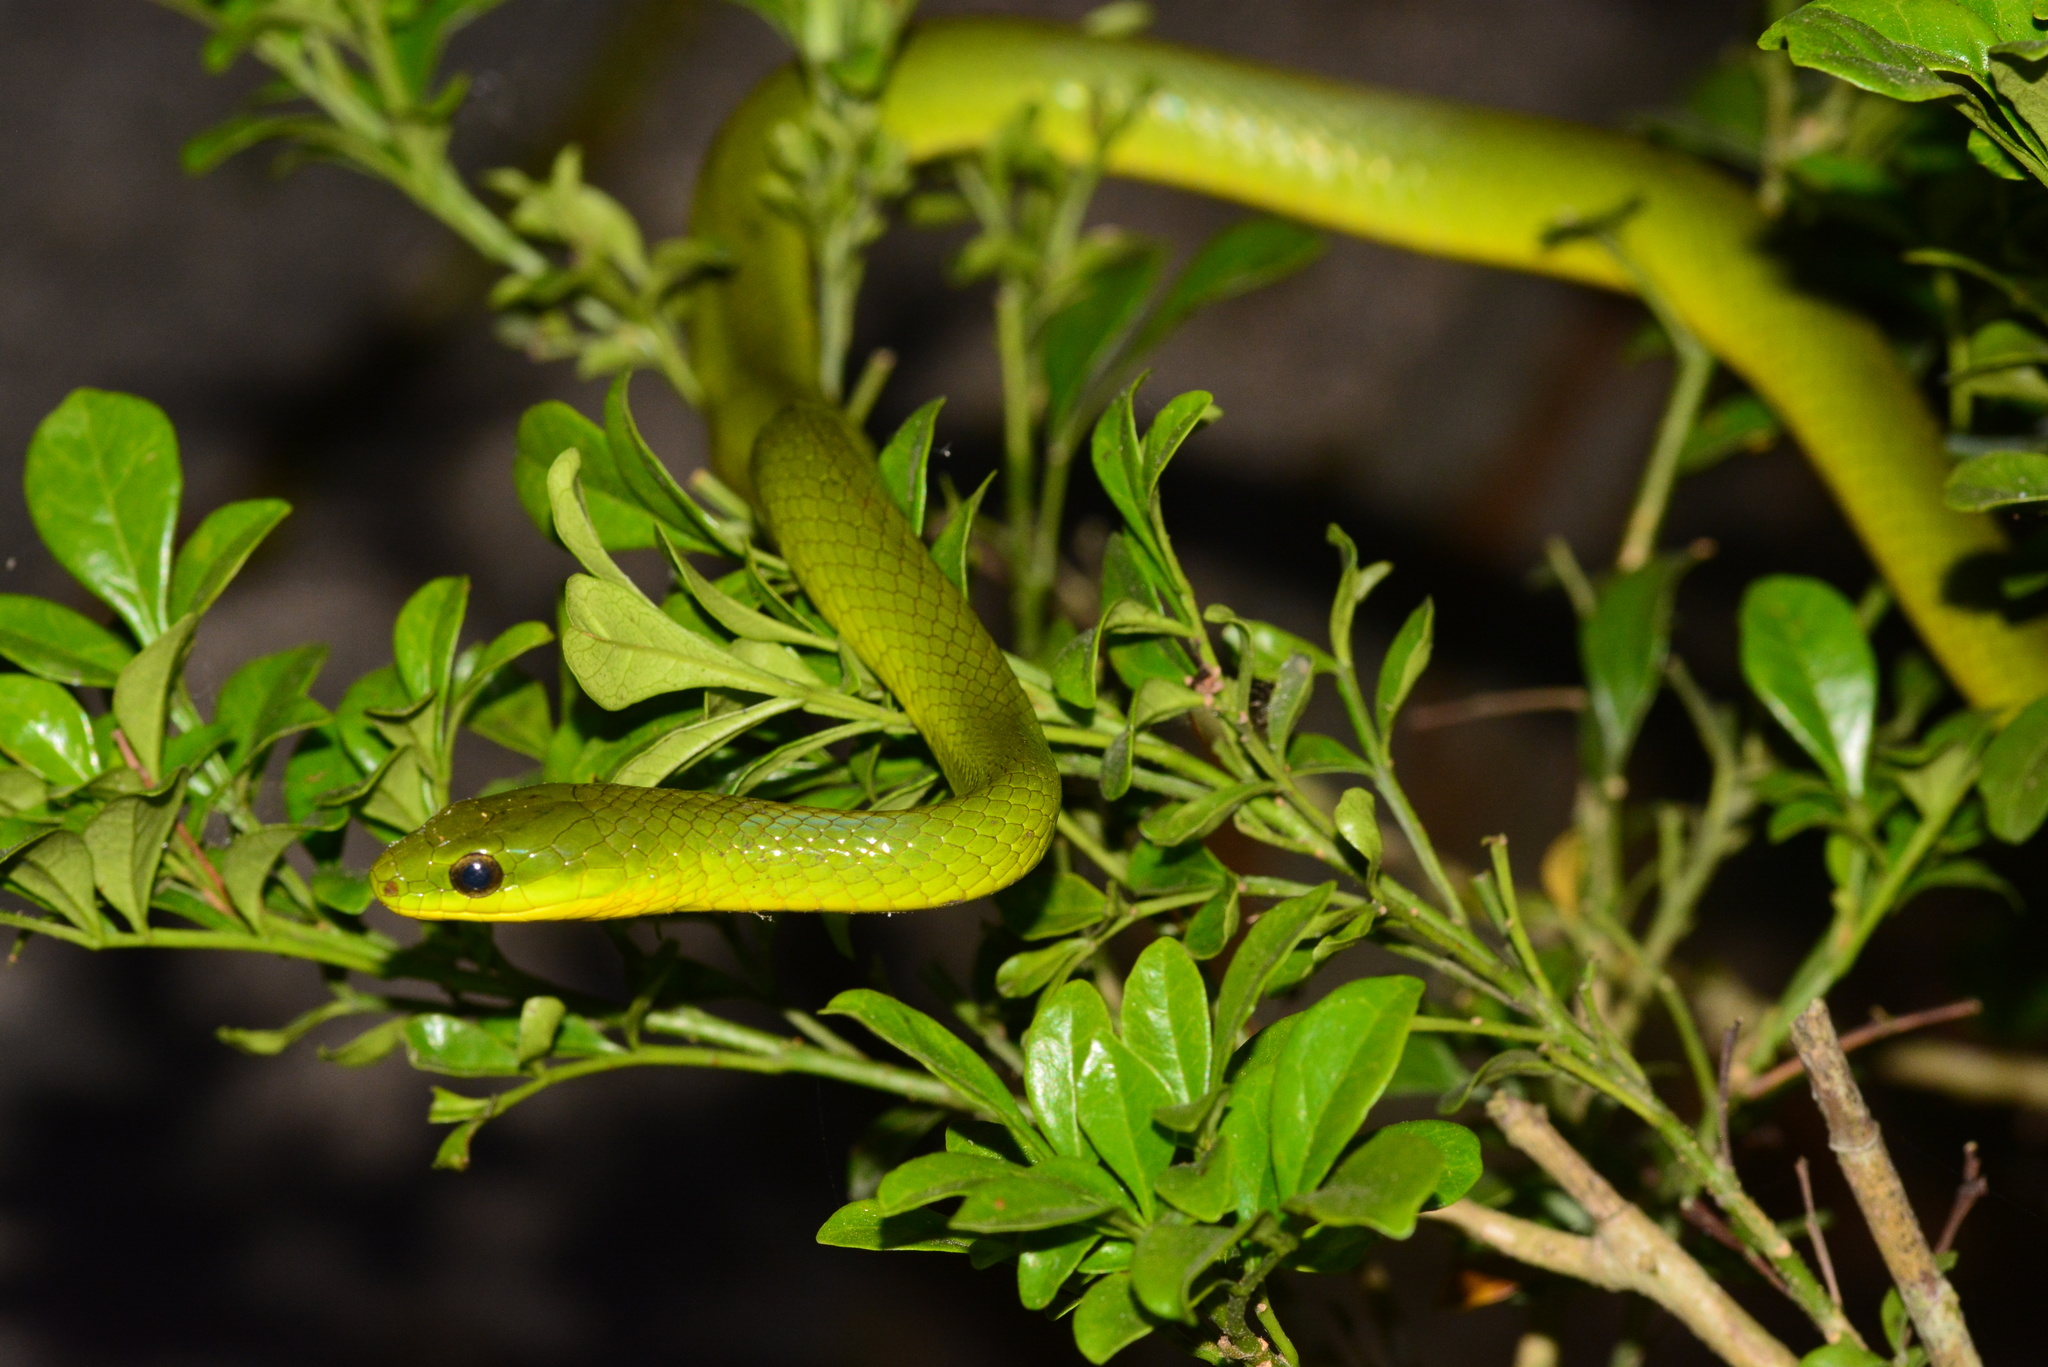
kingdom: Animalia
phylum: Chordata
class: Squamata
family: Colubridae
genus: Ptyas
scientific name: Ptyas major
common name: Chinese green snake
